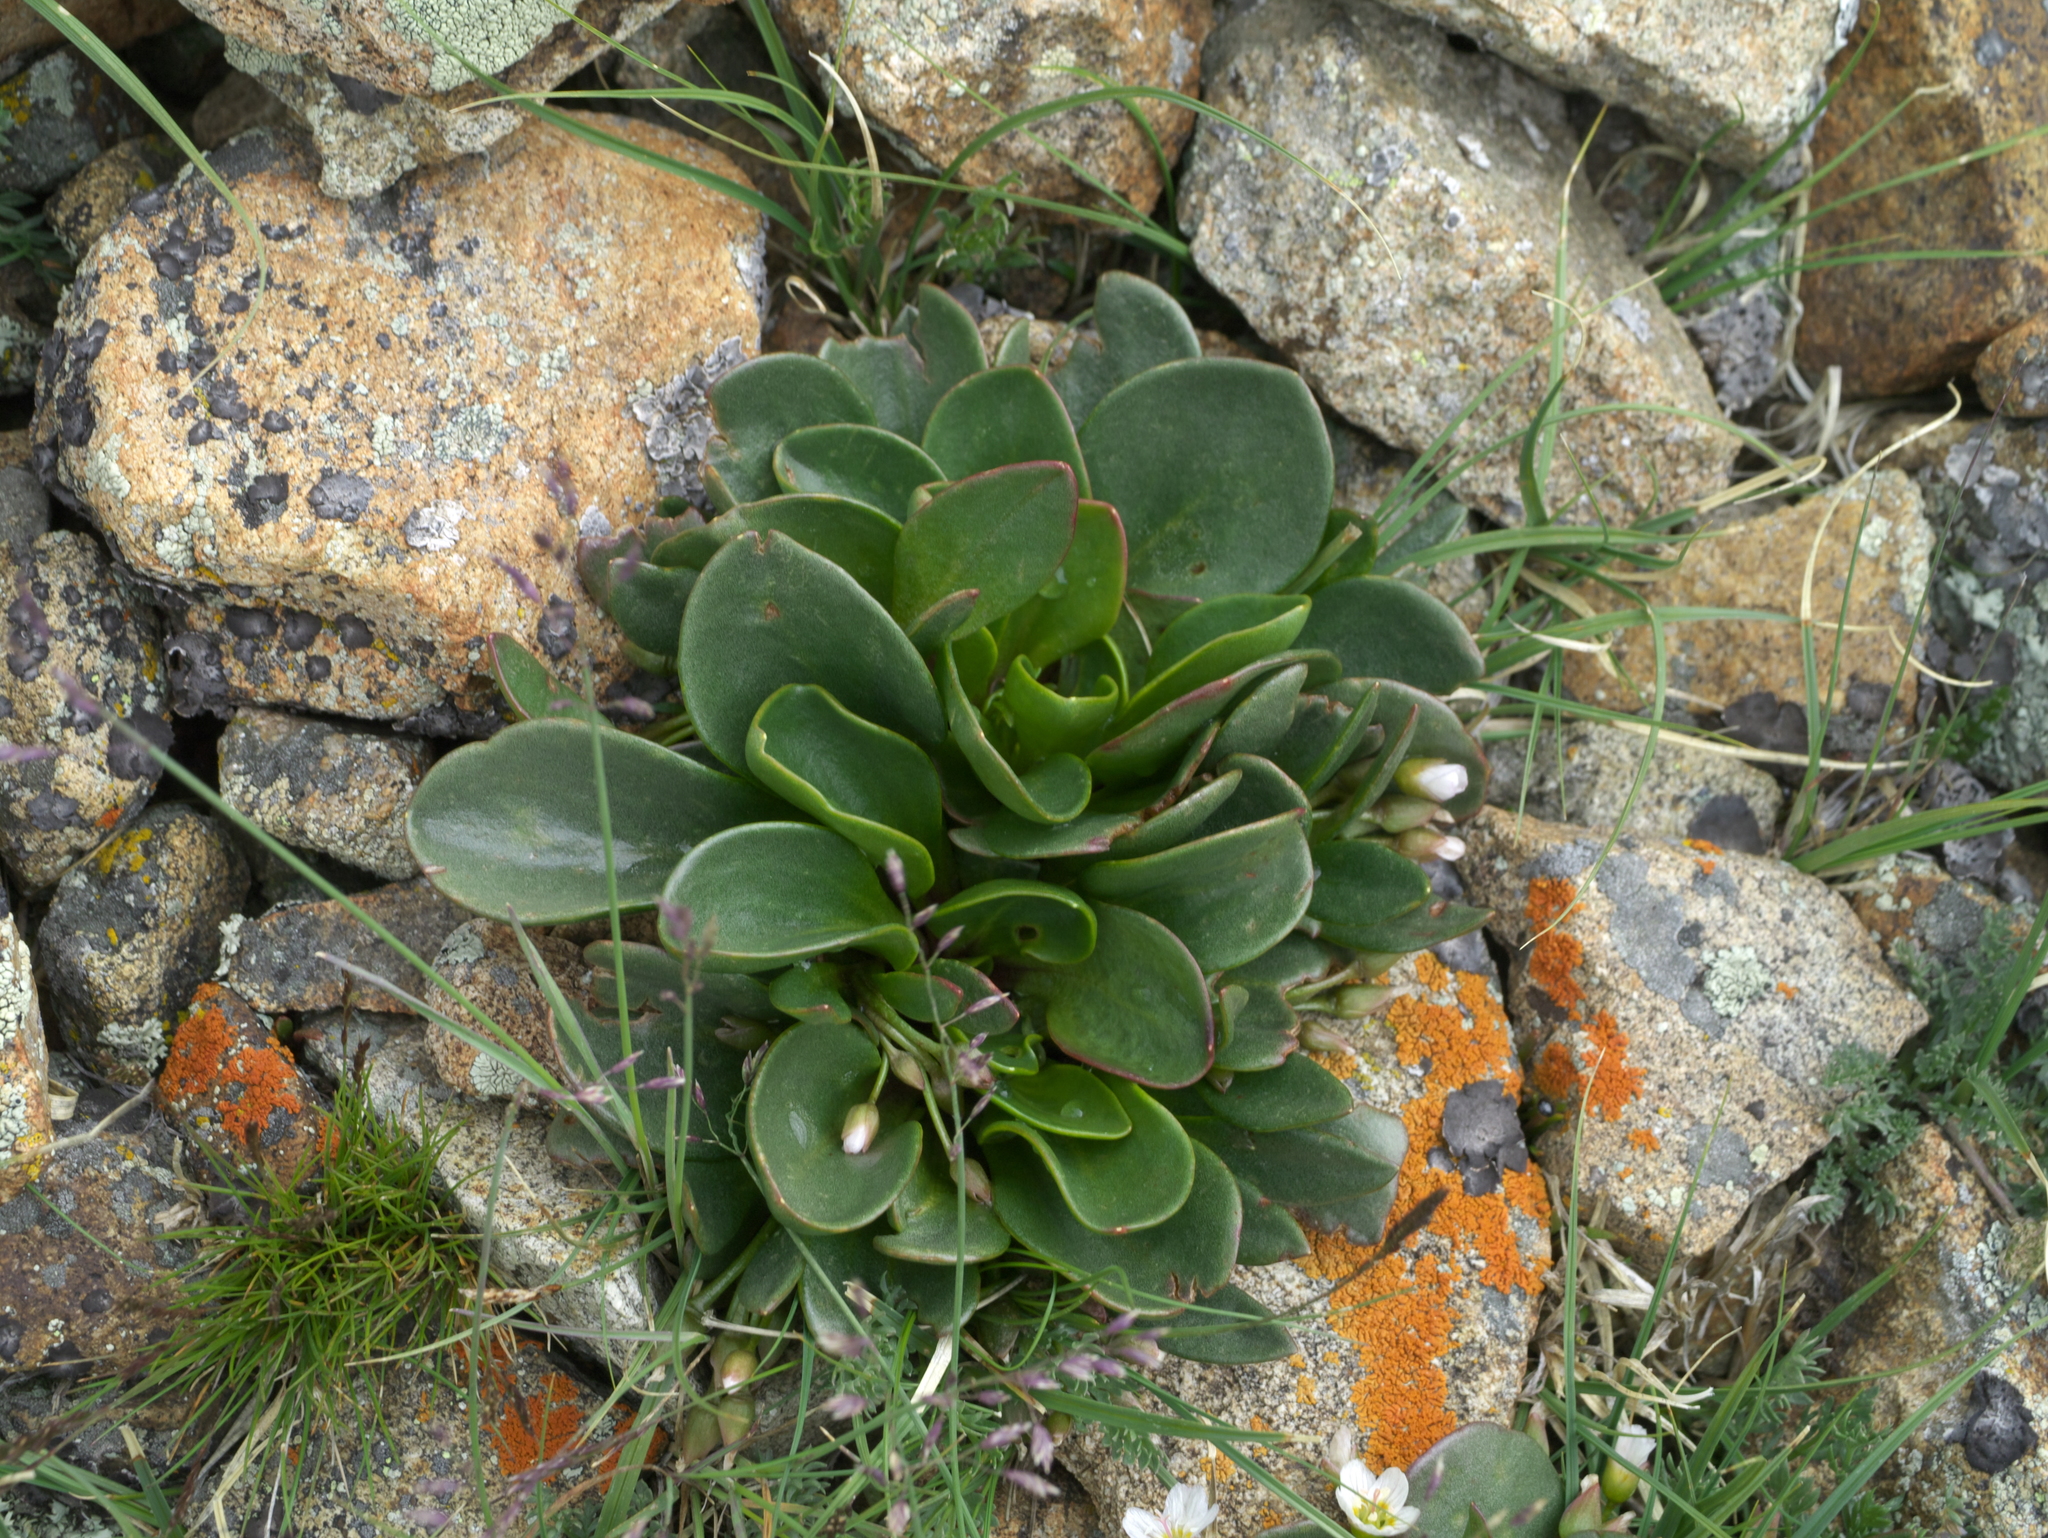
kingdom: Plantae
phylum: Tracheophyta
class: Magnoliopsida
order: Caryophyllales
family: Montiaceae
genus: Claytonia
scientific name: Claytonia megarhiza
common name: Alpine spring beauty
